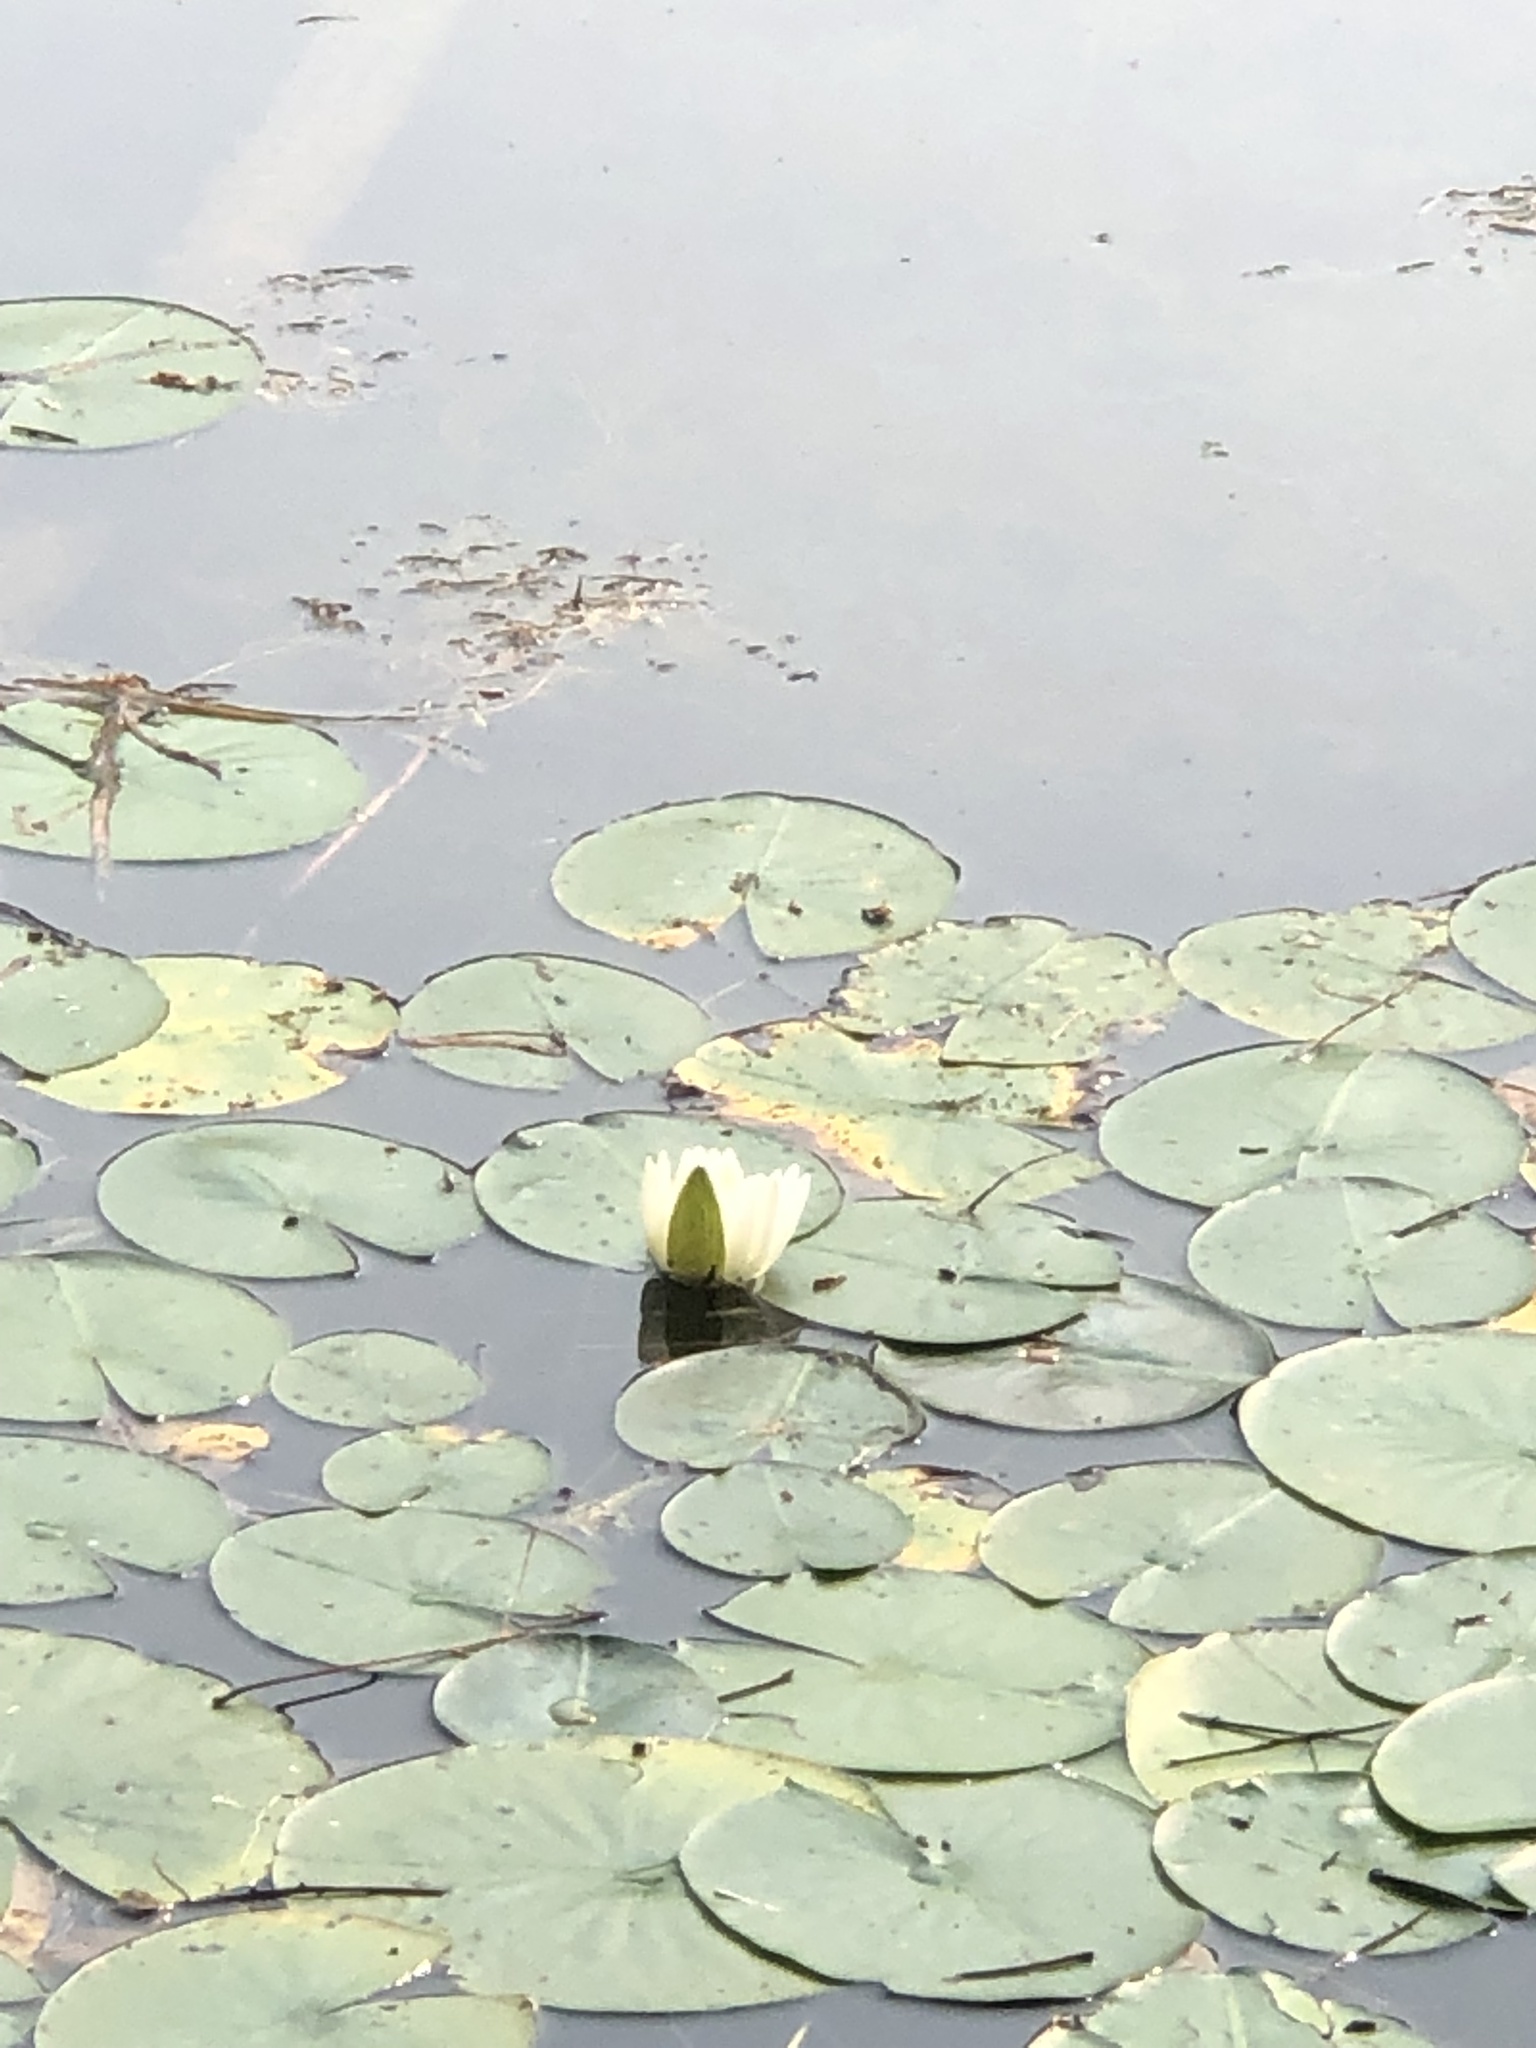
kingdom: Plantae
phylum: Tracheophyta
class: Magnoliopsida
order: Nymphaeales
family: Nymphaeaceae
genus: Nymphaea
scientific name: Nymphaea odorata
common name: Fragrant water-lily
